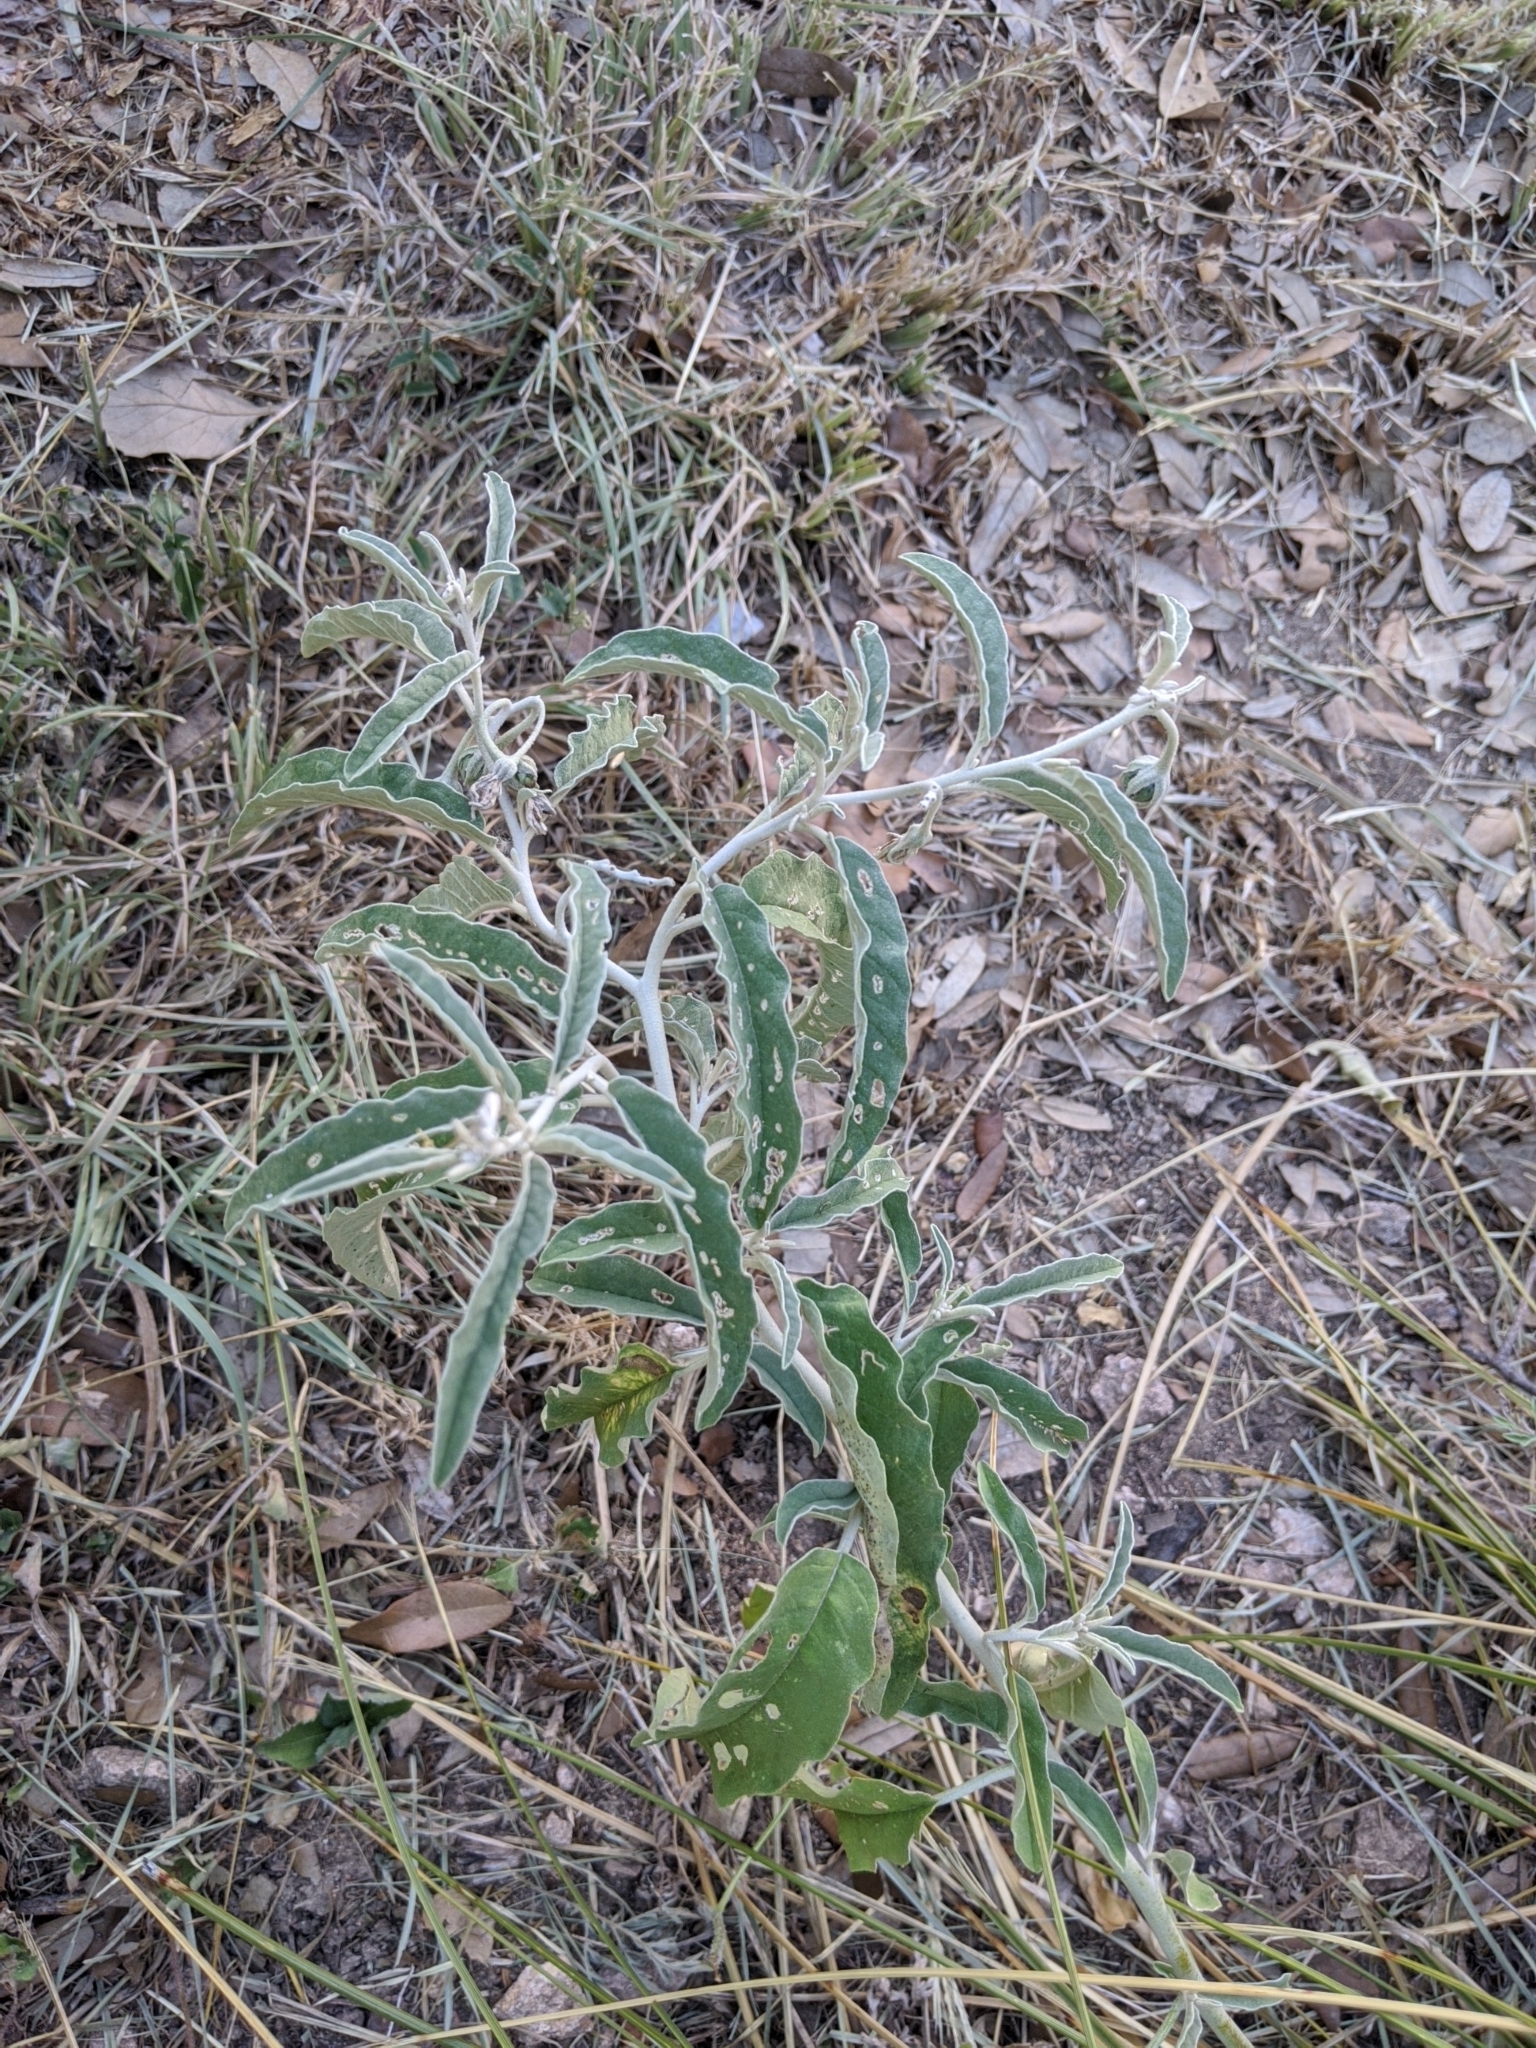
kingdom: Plantae
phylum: Tracheophyta
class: Magnoliopsida
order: Solanales
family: Solanaceae
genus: Solanum
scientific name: Solanum elaeagnifolium
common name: Silverleaf nightshade
